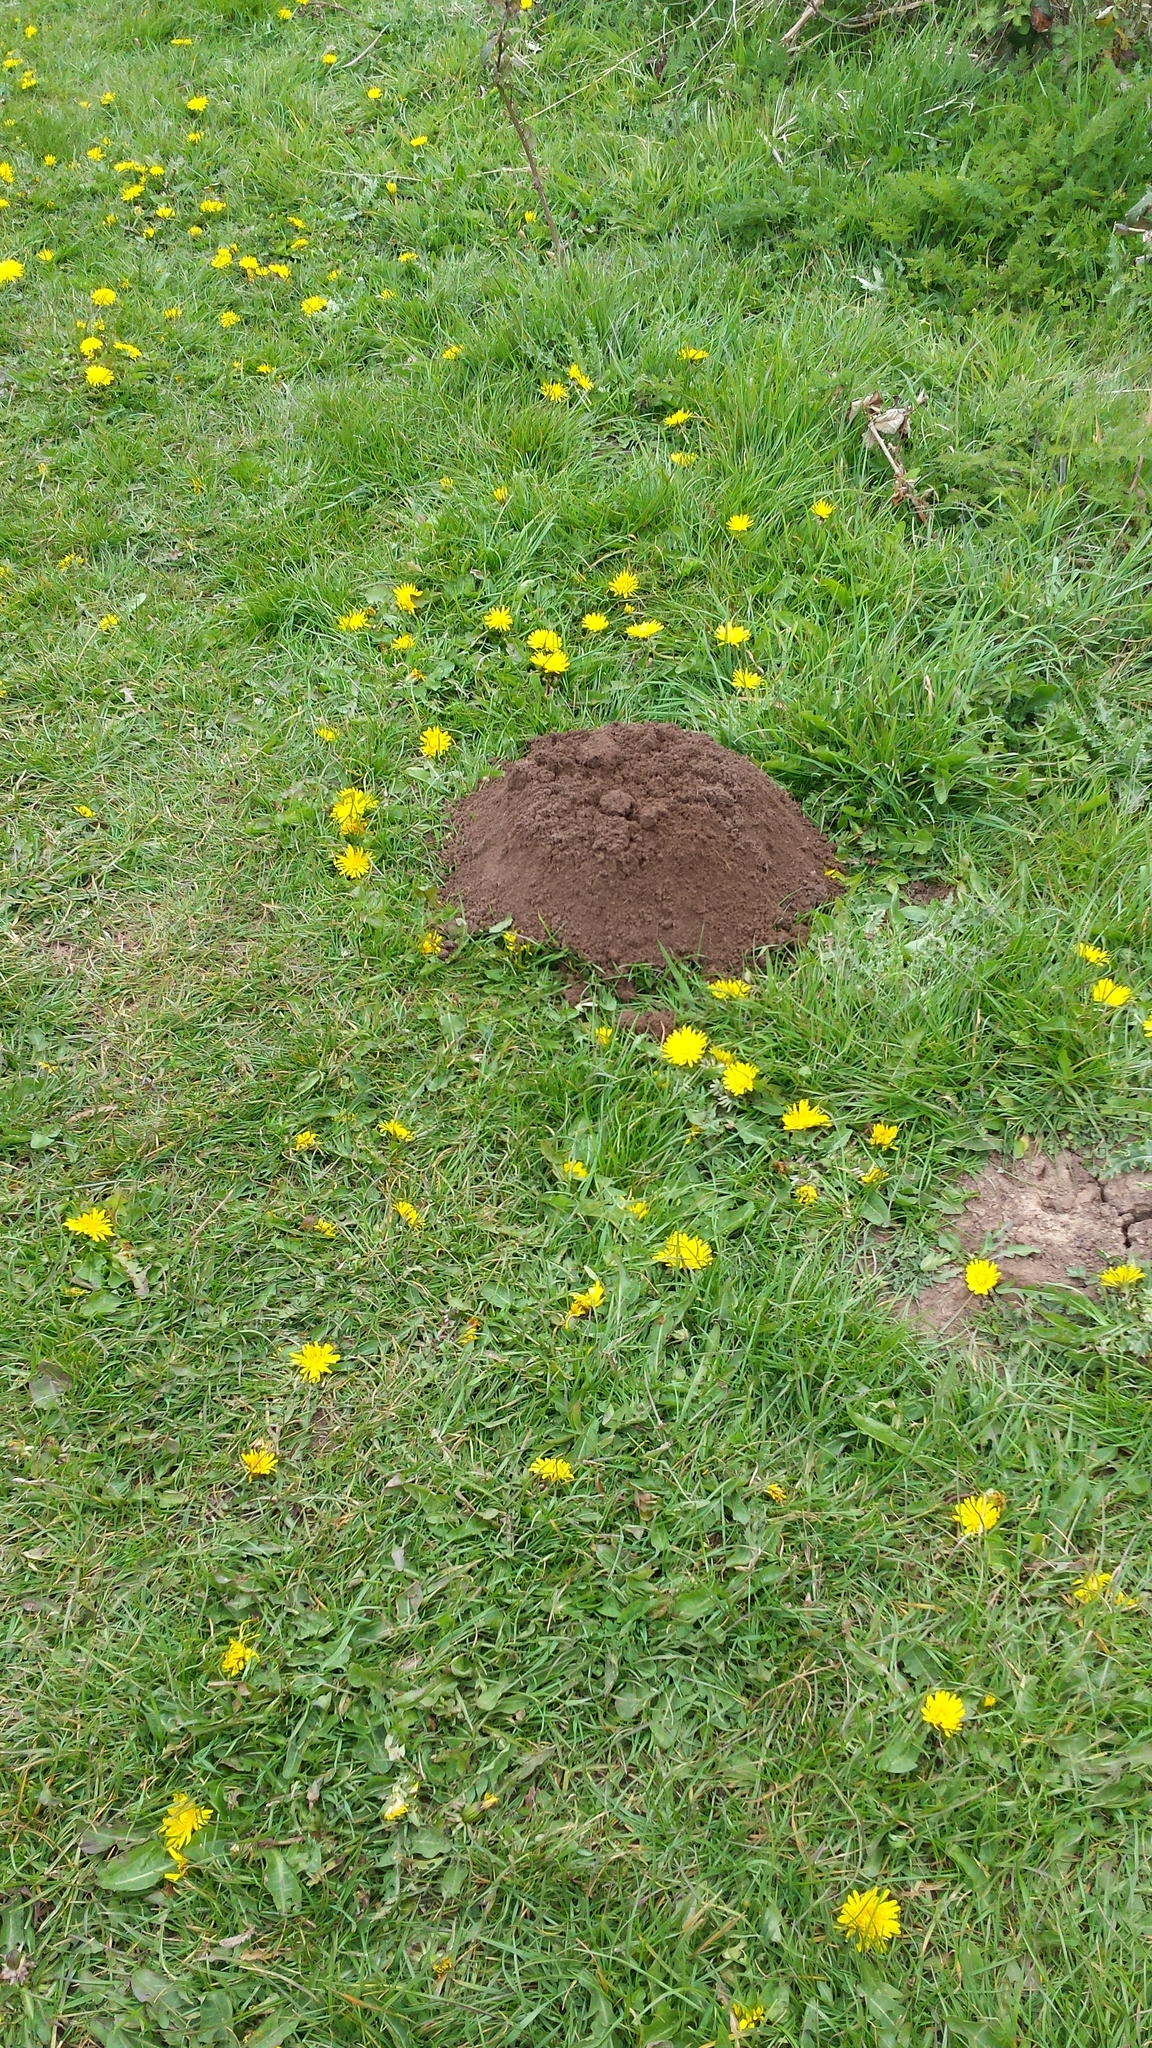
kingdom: Animalia
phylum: Chordata
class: Mammalia
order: Soricomorpha
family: Talpidae
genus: Talpa
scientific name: Talpa europaea
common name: European mole
